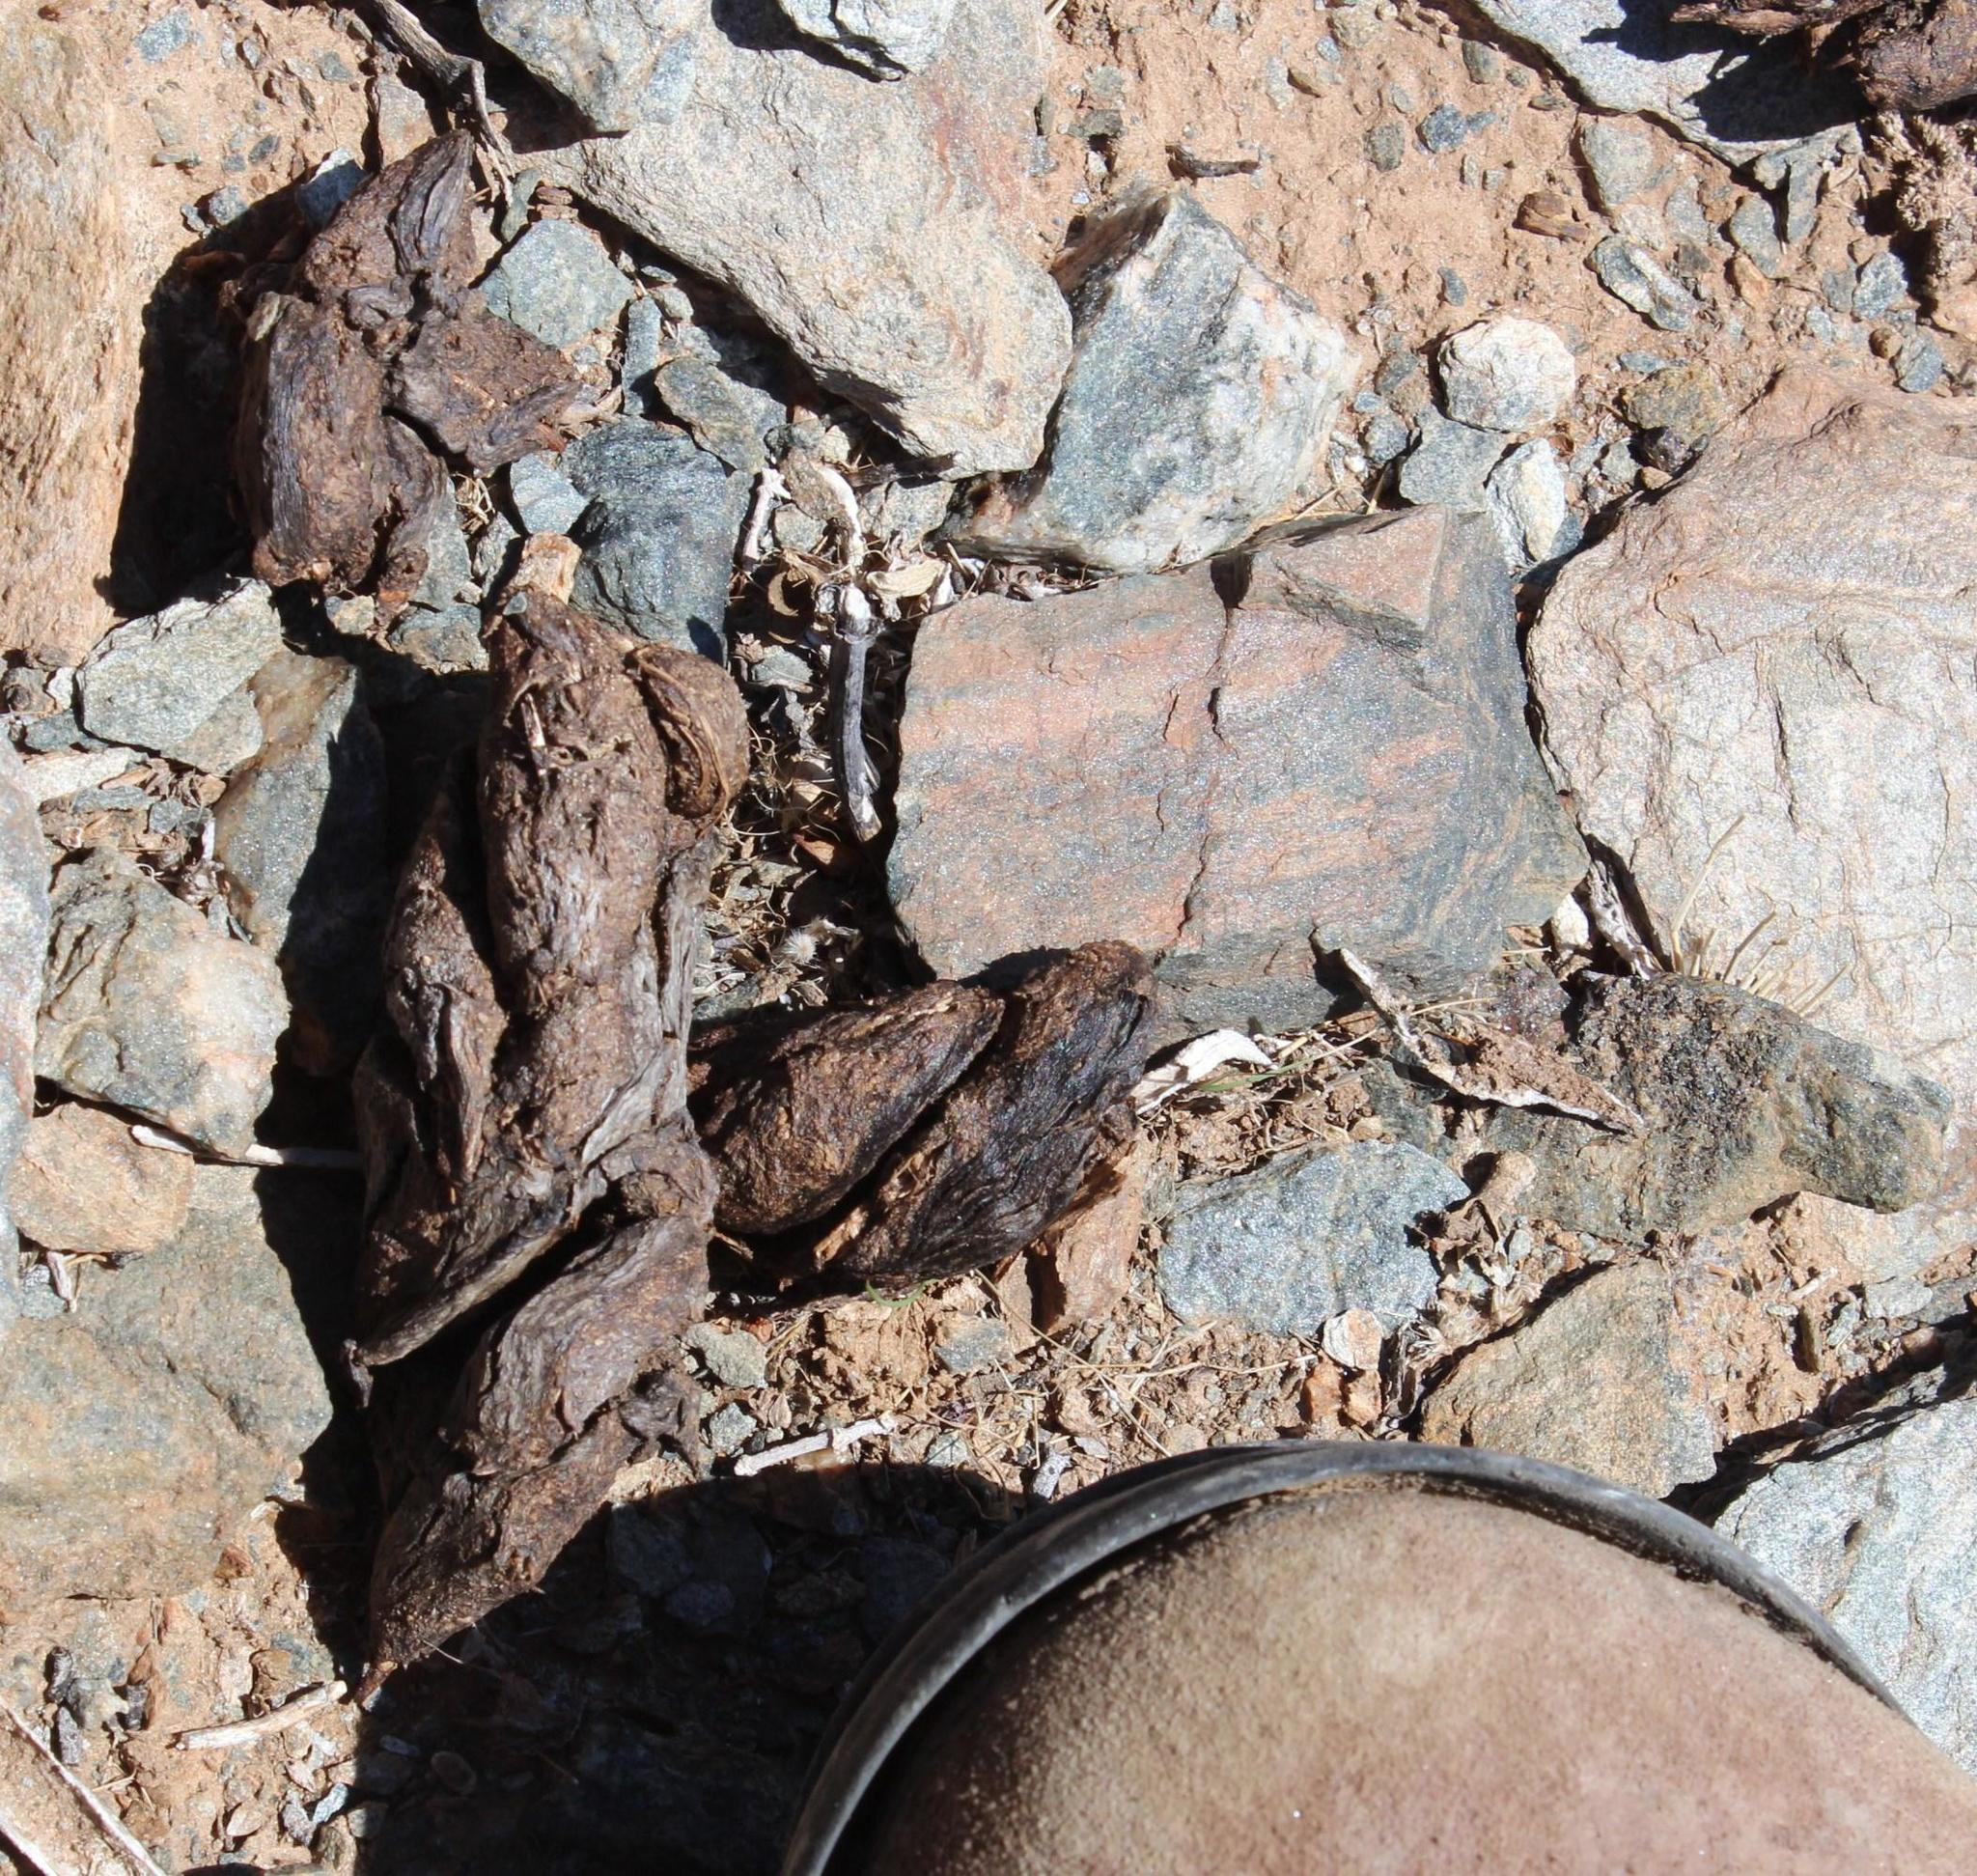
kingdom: Animalia
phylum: Chordata
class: Mammalia
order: Rodentia
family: Hystricidae
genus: Hystrix
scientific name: Hystrix africaeaustralis
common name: Cape porcupine
